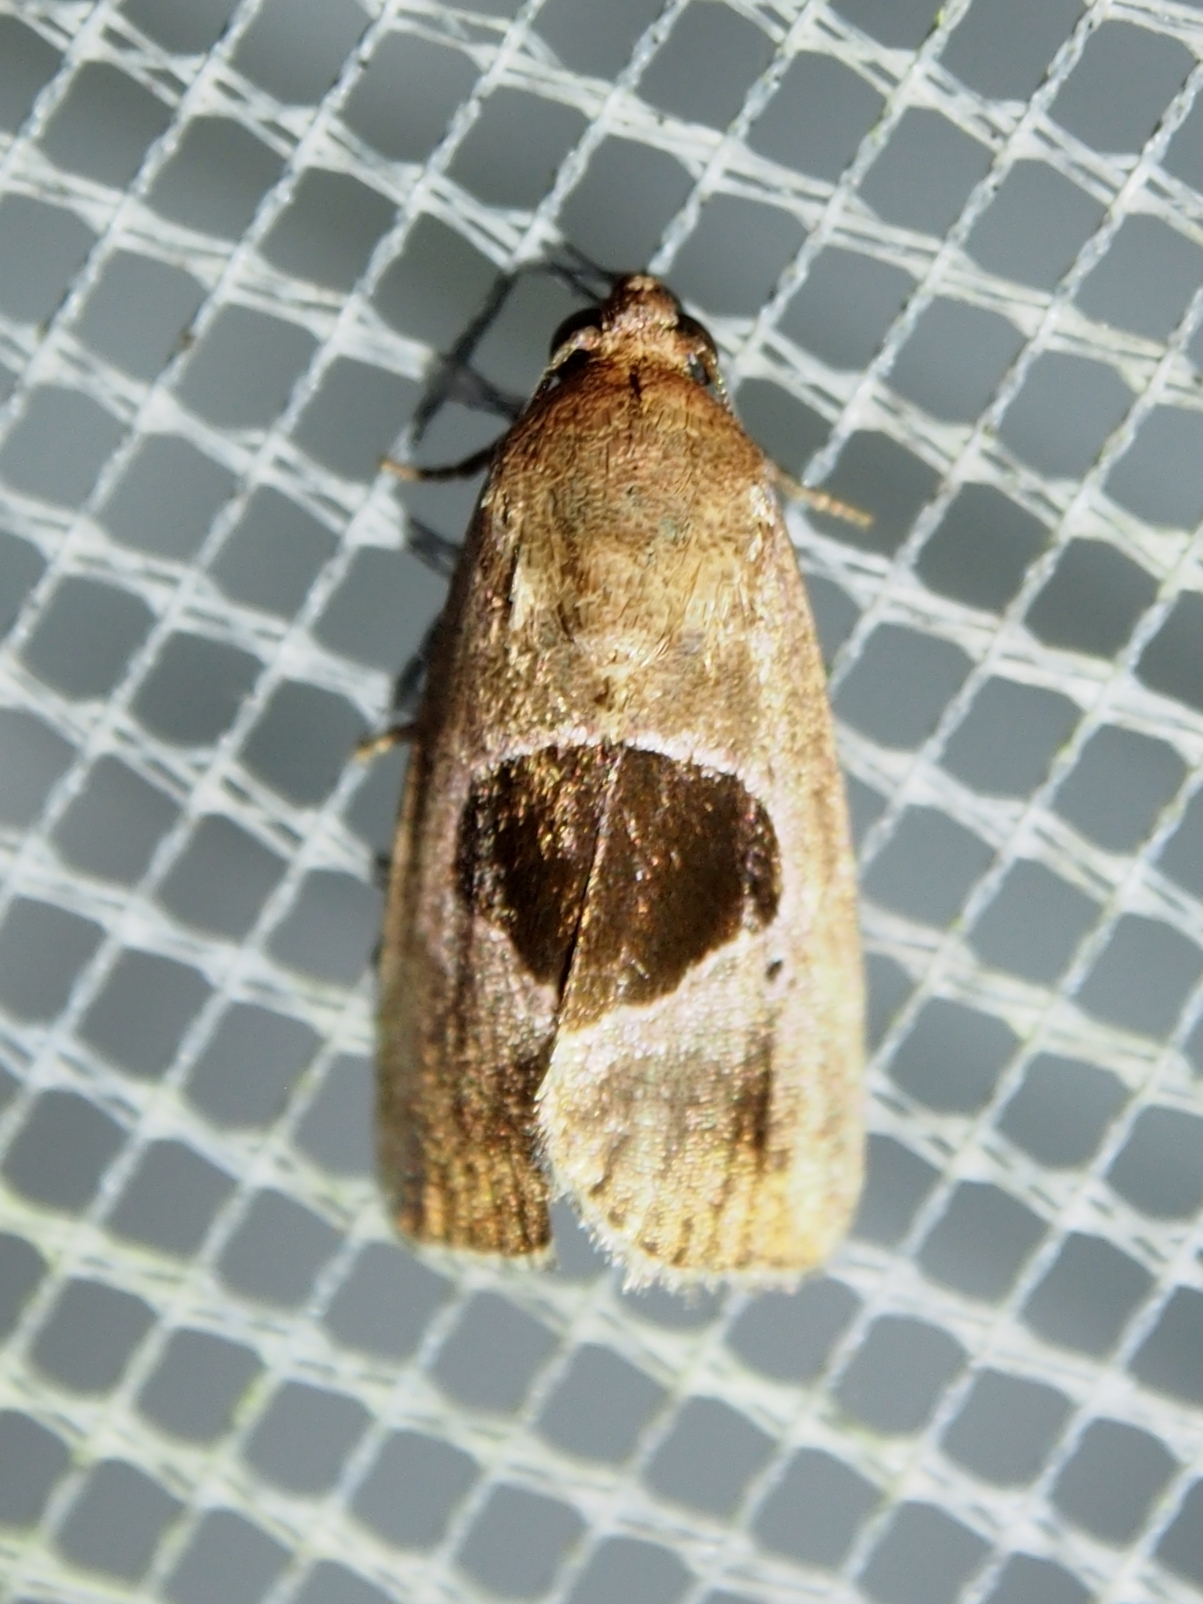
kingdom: Animalia
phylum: Arthropoda
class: Insecta
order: Lepidoptera
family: Noctuidae
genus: Elaphria
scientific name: Elaphria deltoides
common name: Cutworm moth
